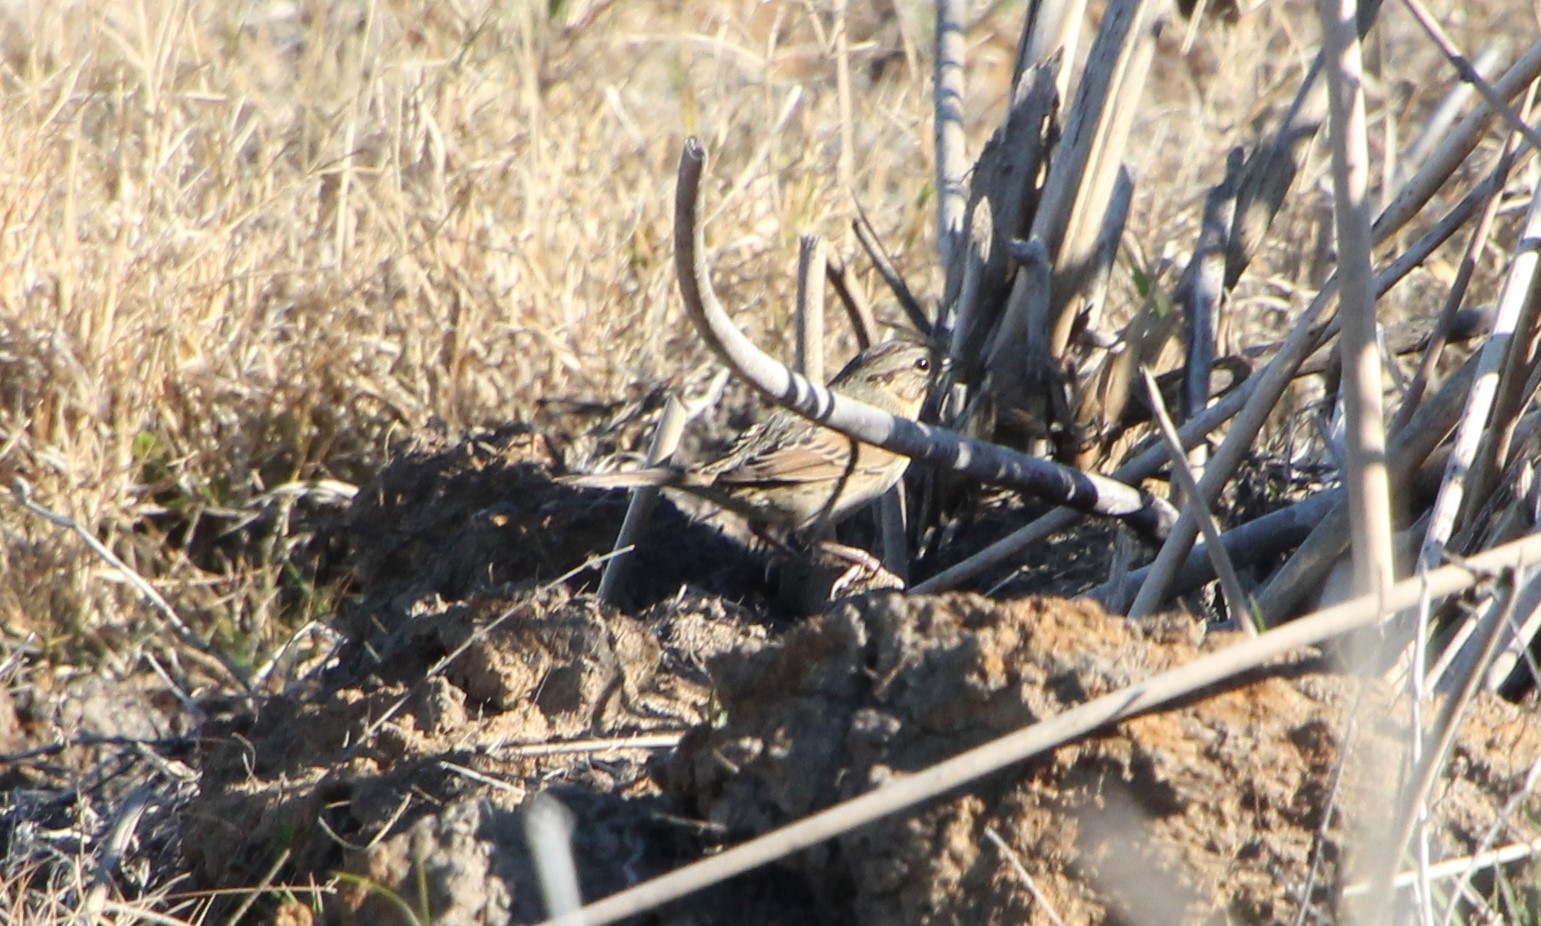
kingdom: Animalia
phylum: Chordata
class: Aves
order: Passeriformes
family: Passerellidae
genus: Melospiza
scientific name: Melospiza lincolnii
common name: Lincoln's sparrow
